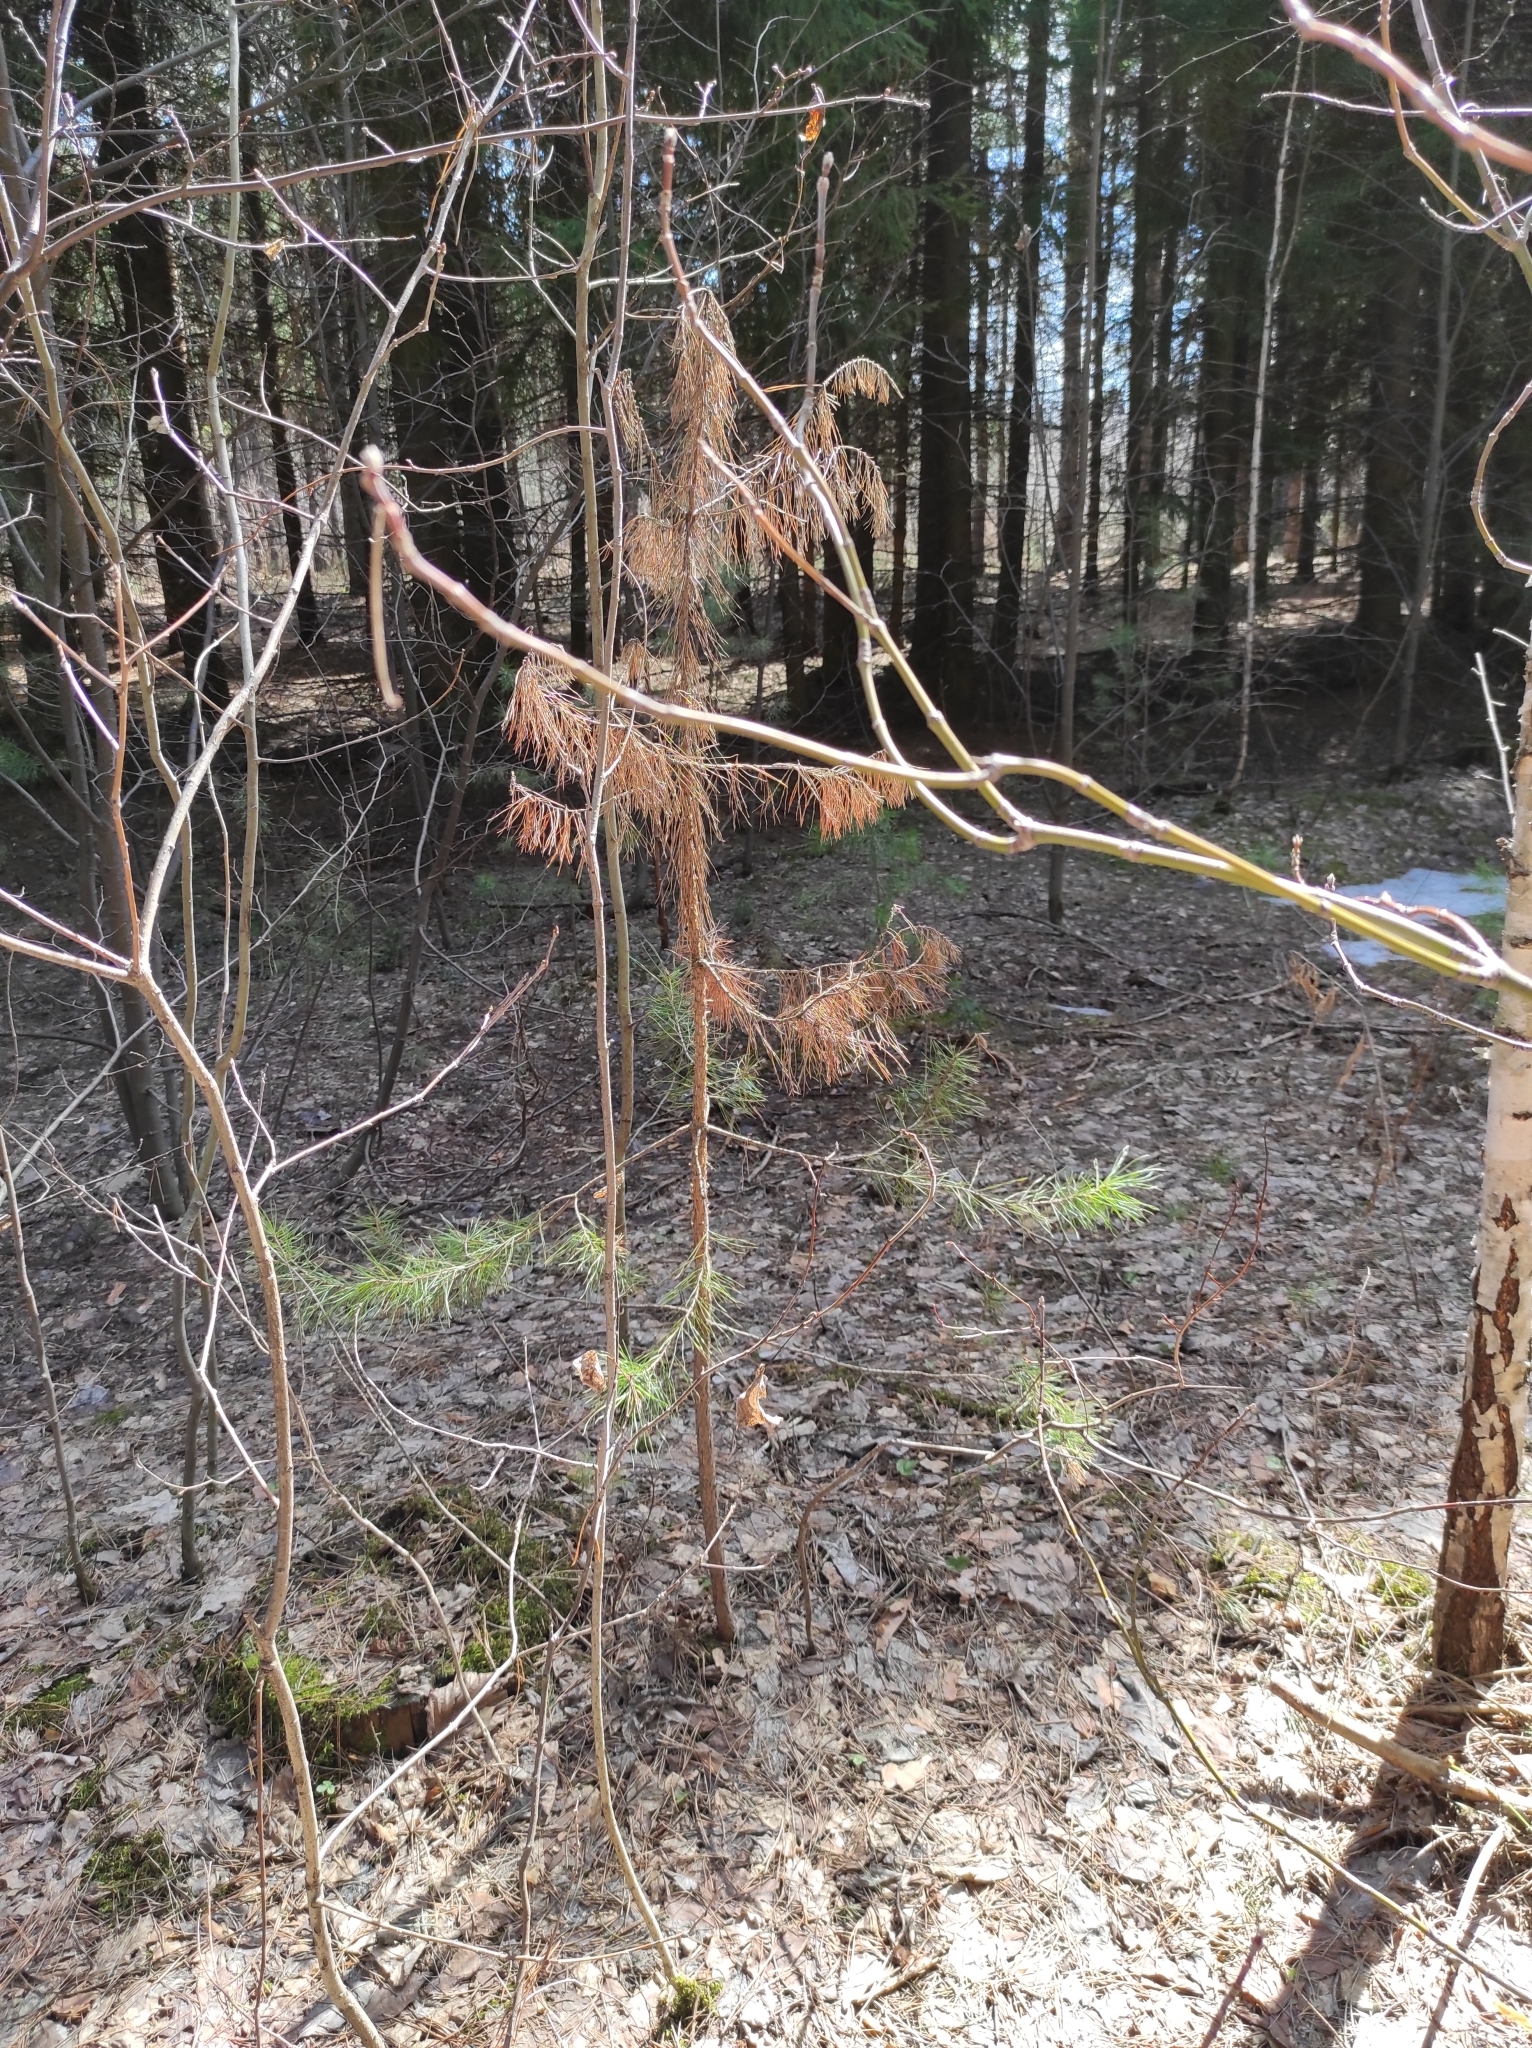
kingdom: Plantae
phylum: Tracheophyta
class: Pinopsida
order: Pinales
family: Pinaceae
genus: Pinus
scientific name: Pinus sylvestris
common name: Scots pine
